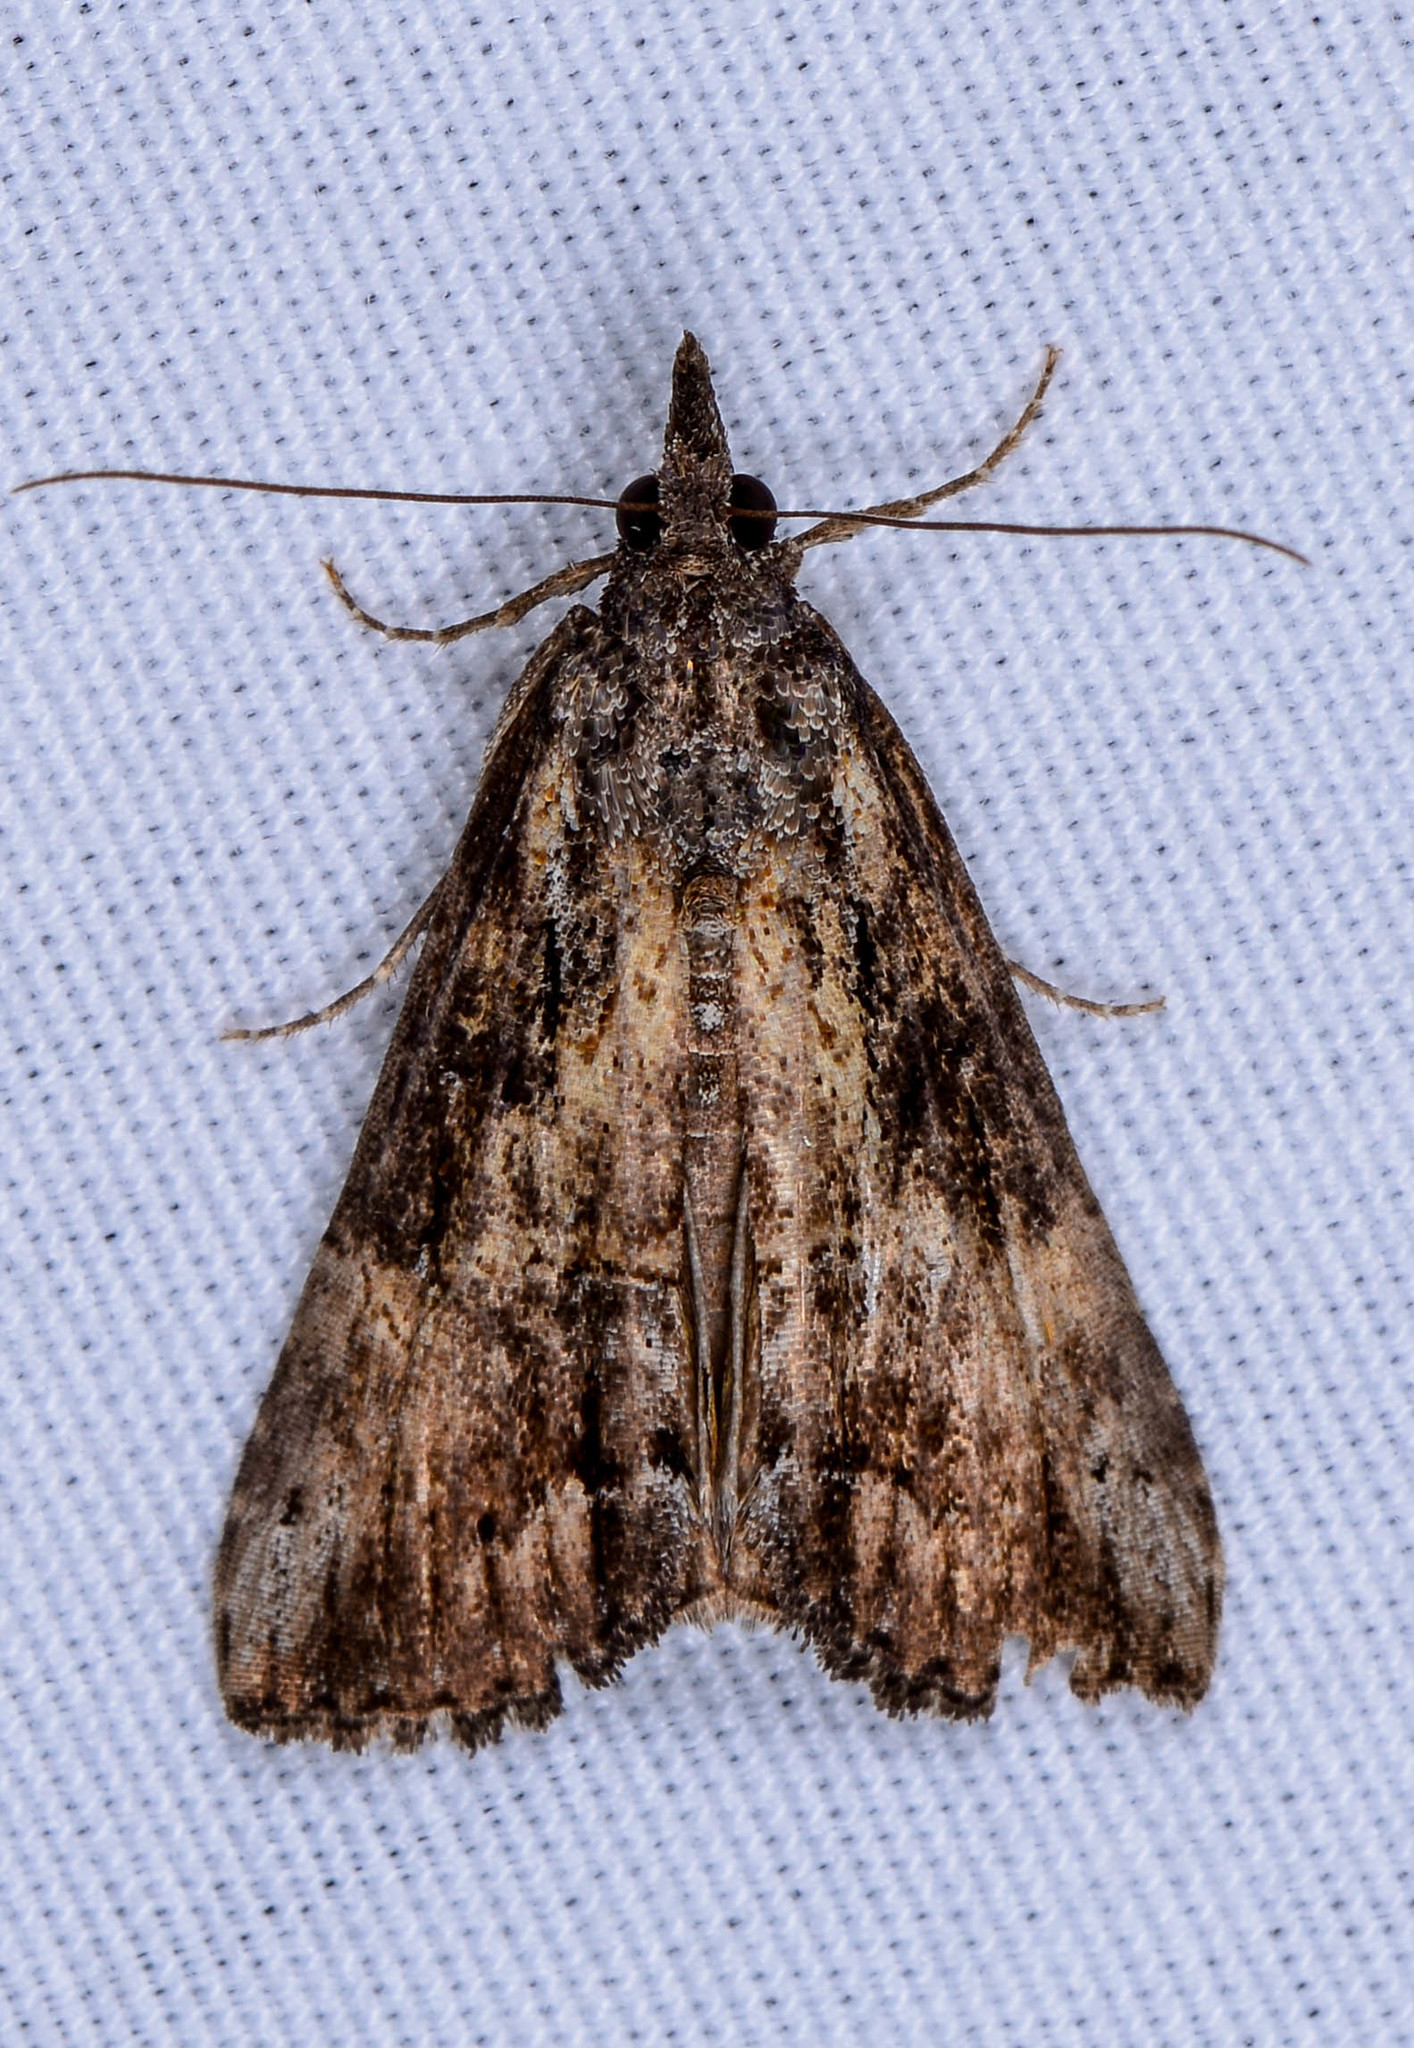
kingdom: Animalia
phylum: Arthropoda
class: Insecta
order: Lepidoptera
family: Erebidae
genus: Hypena
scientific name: Hypena scabra
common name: Green cloverworm
